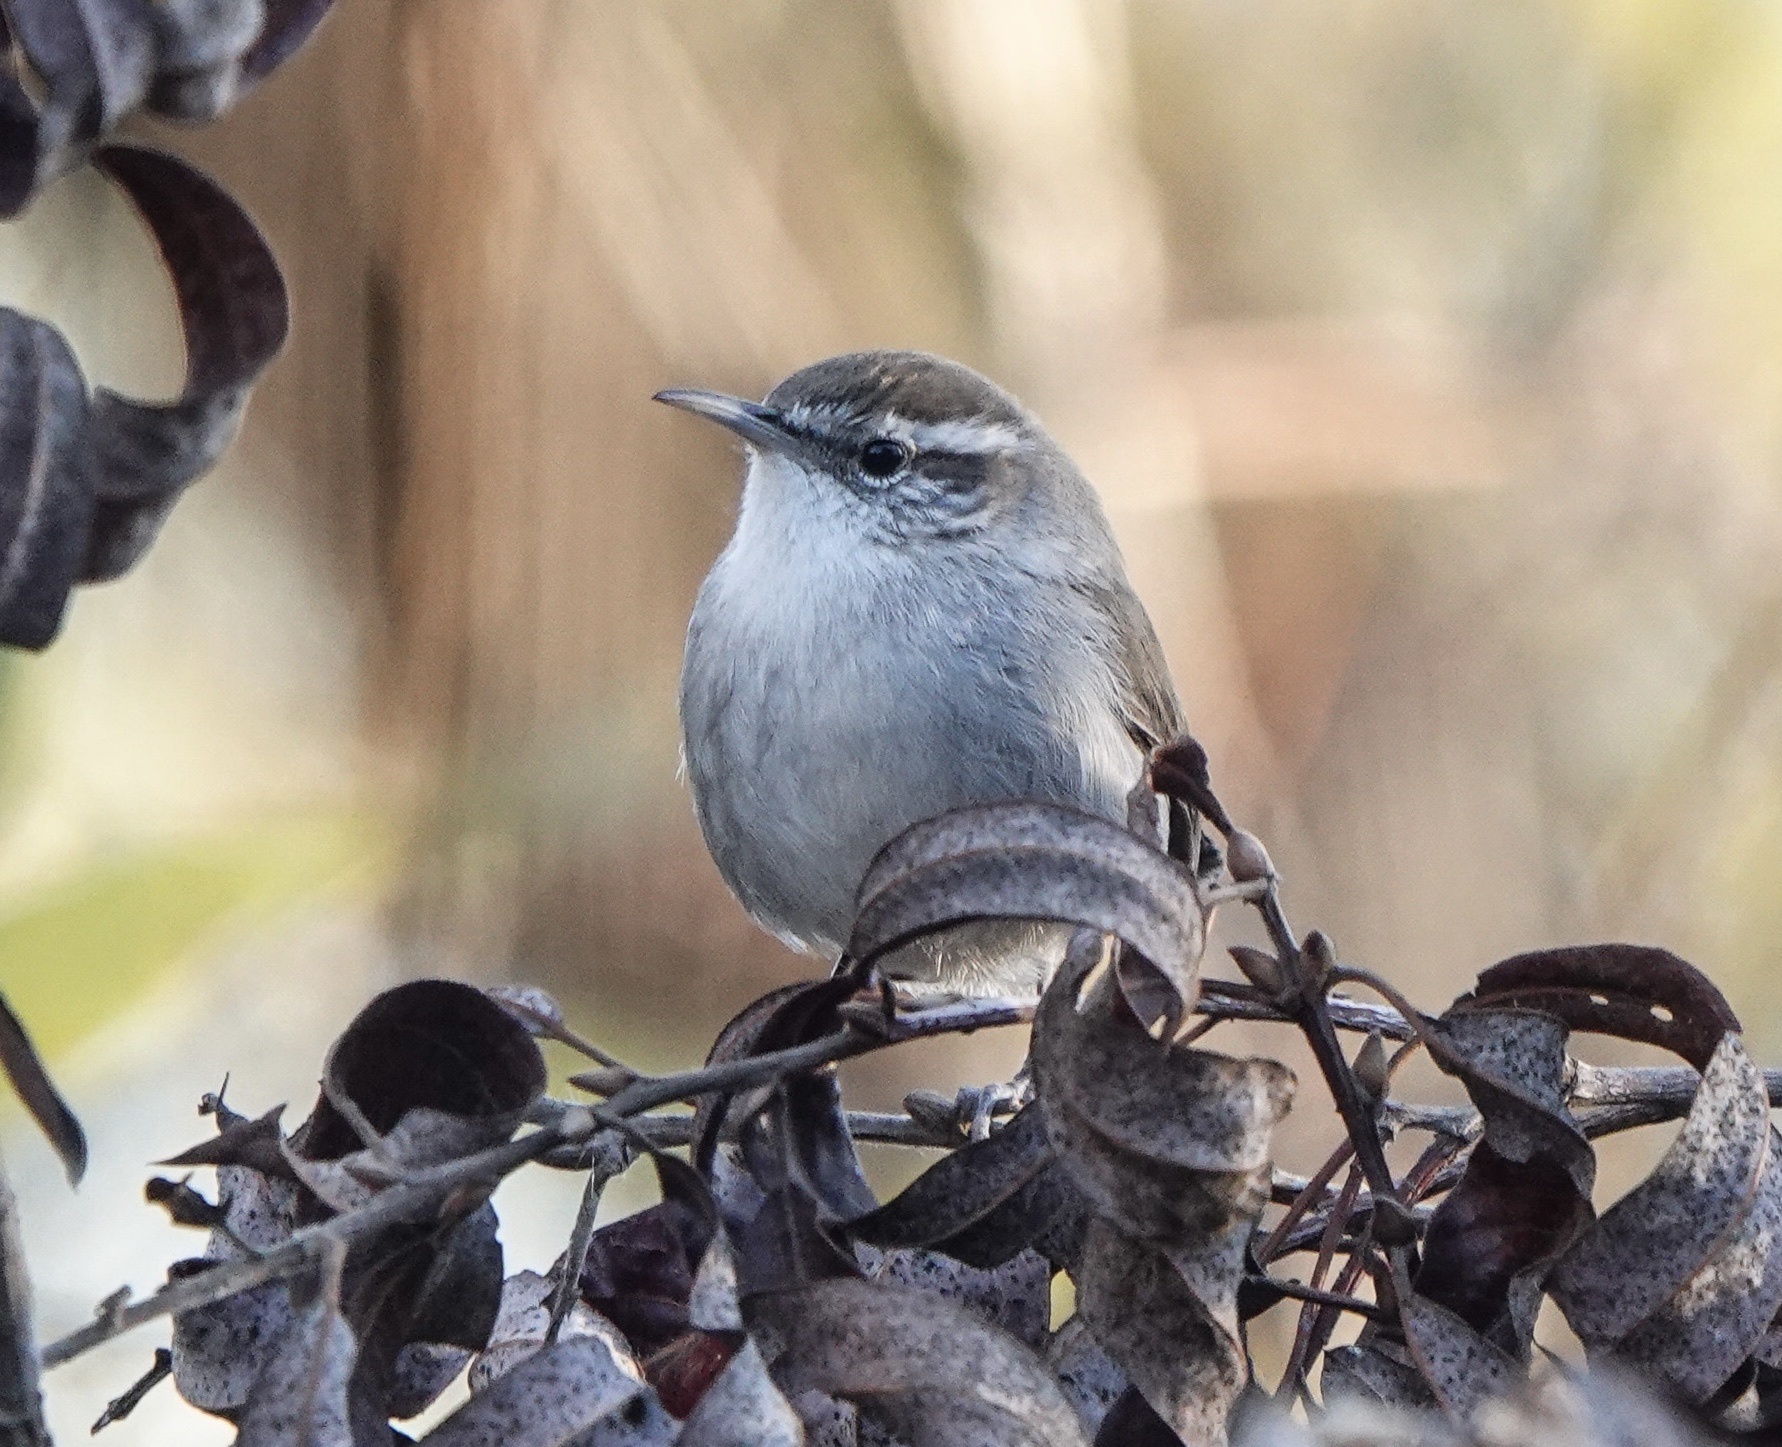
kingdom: Animalia
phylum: Chordata
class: Aves
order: Passeriformes
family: Troglodytidae
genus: Thryomanes
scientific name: Thryomanes bewickii
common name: Bewick's wren
